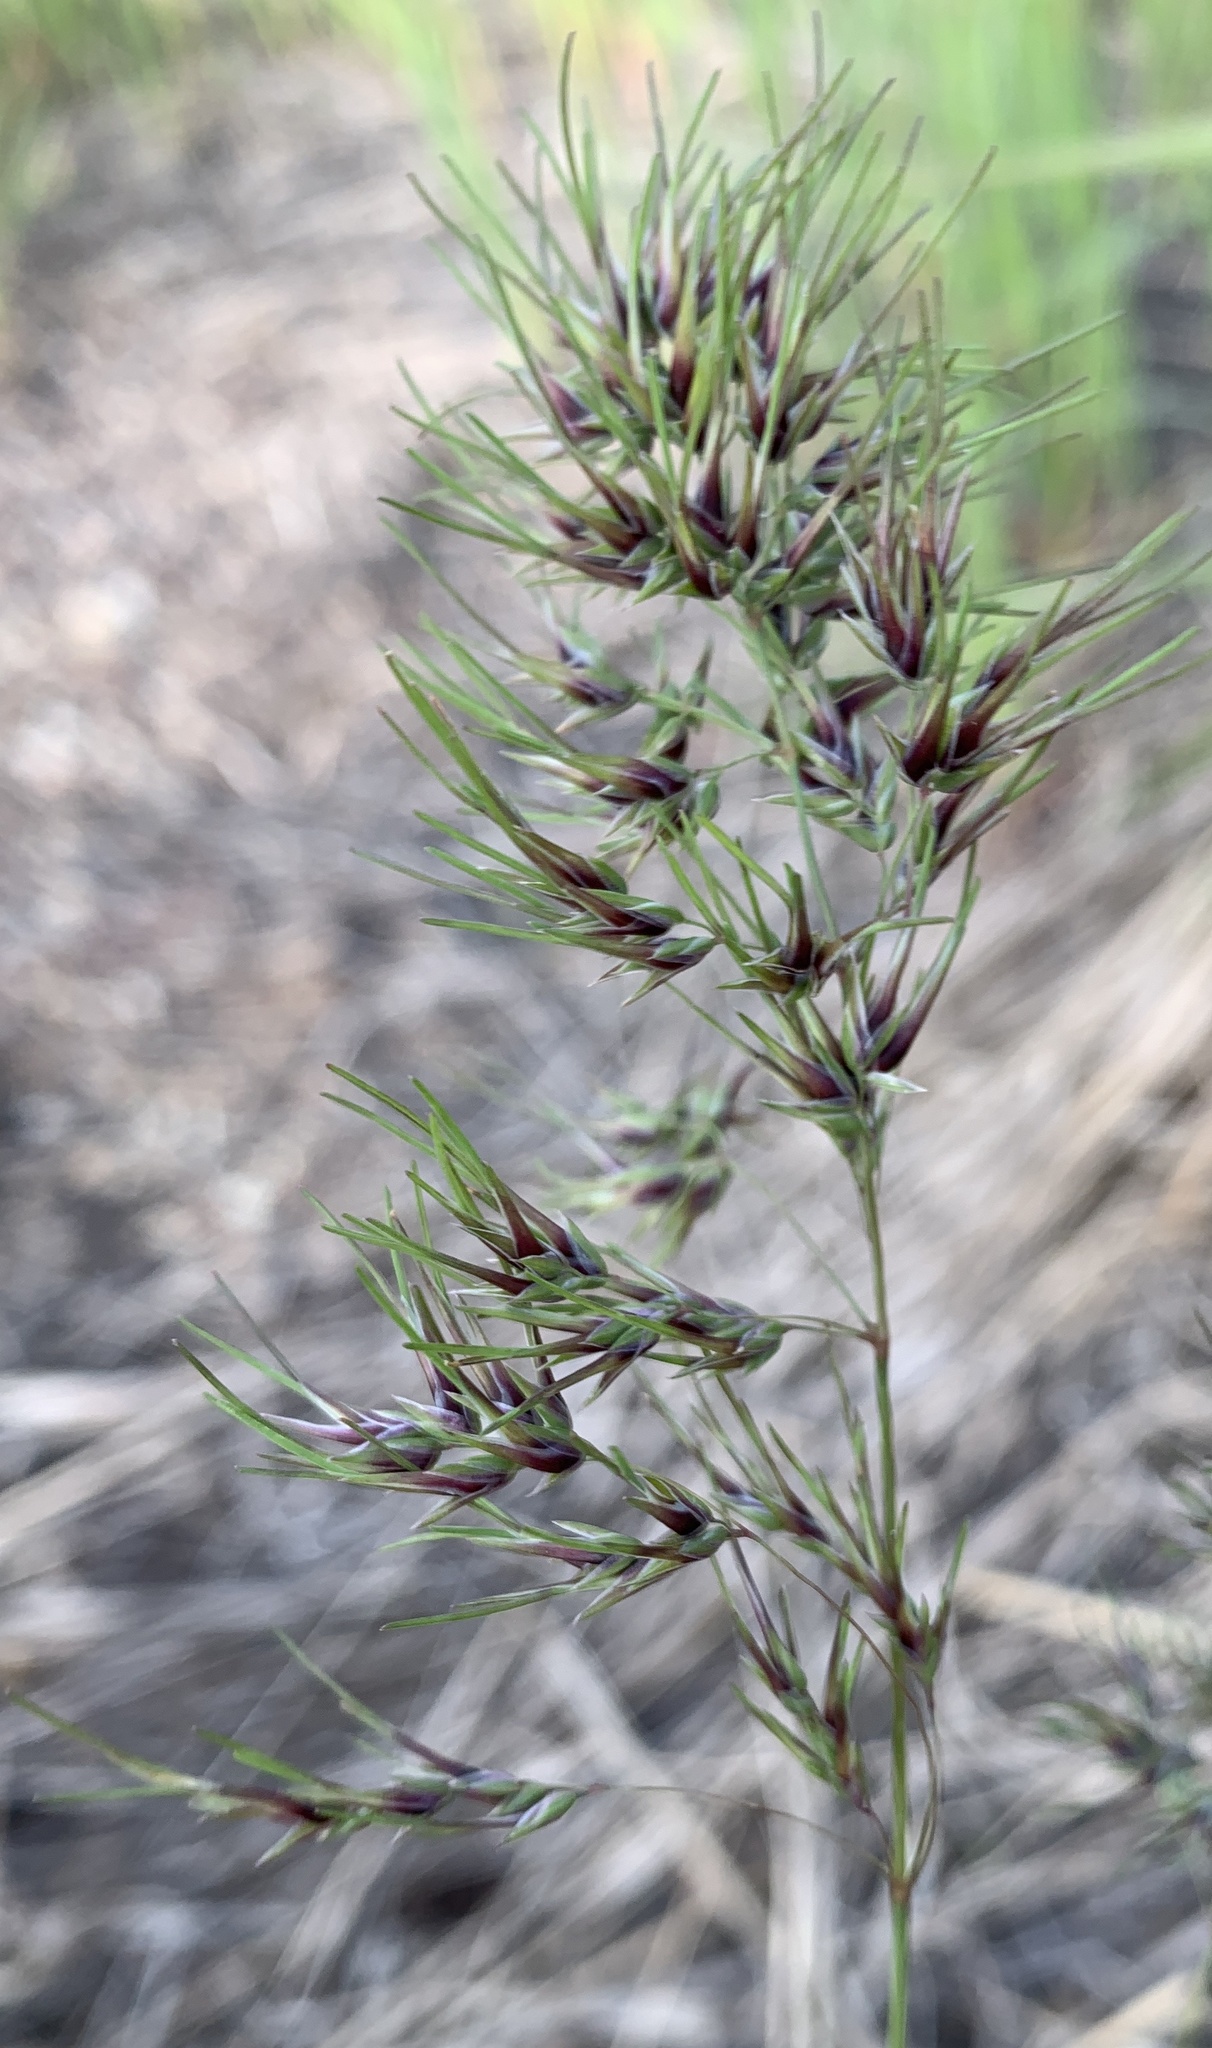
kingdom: Plantae
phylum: Tracheophyta
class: Liliopsida
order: Poales
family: Poaceae
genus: Poa
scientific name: Poa bulbosa
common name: Bulbous bluegrass
